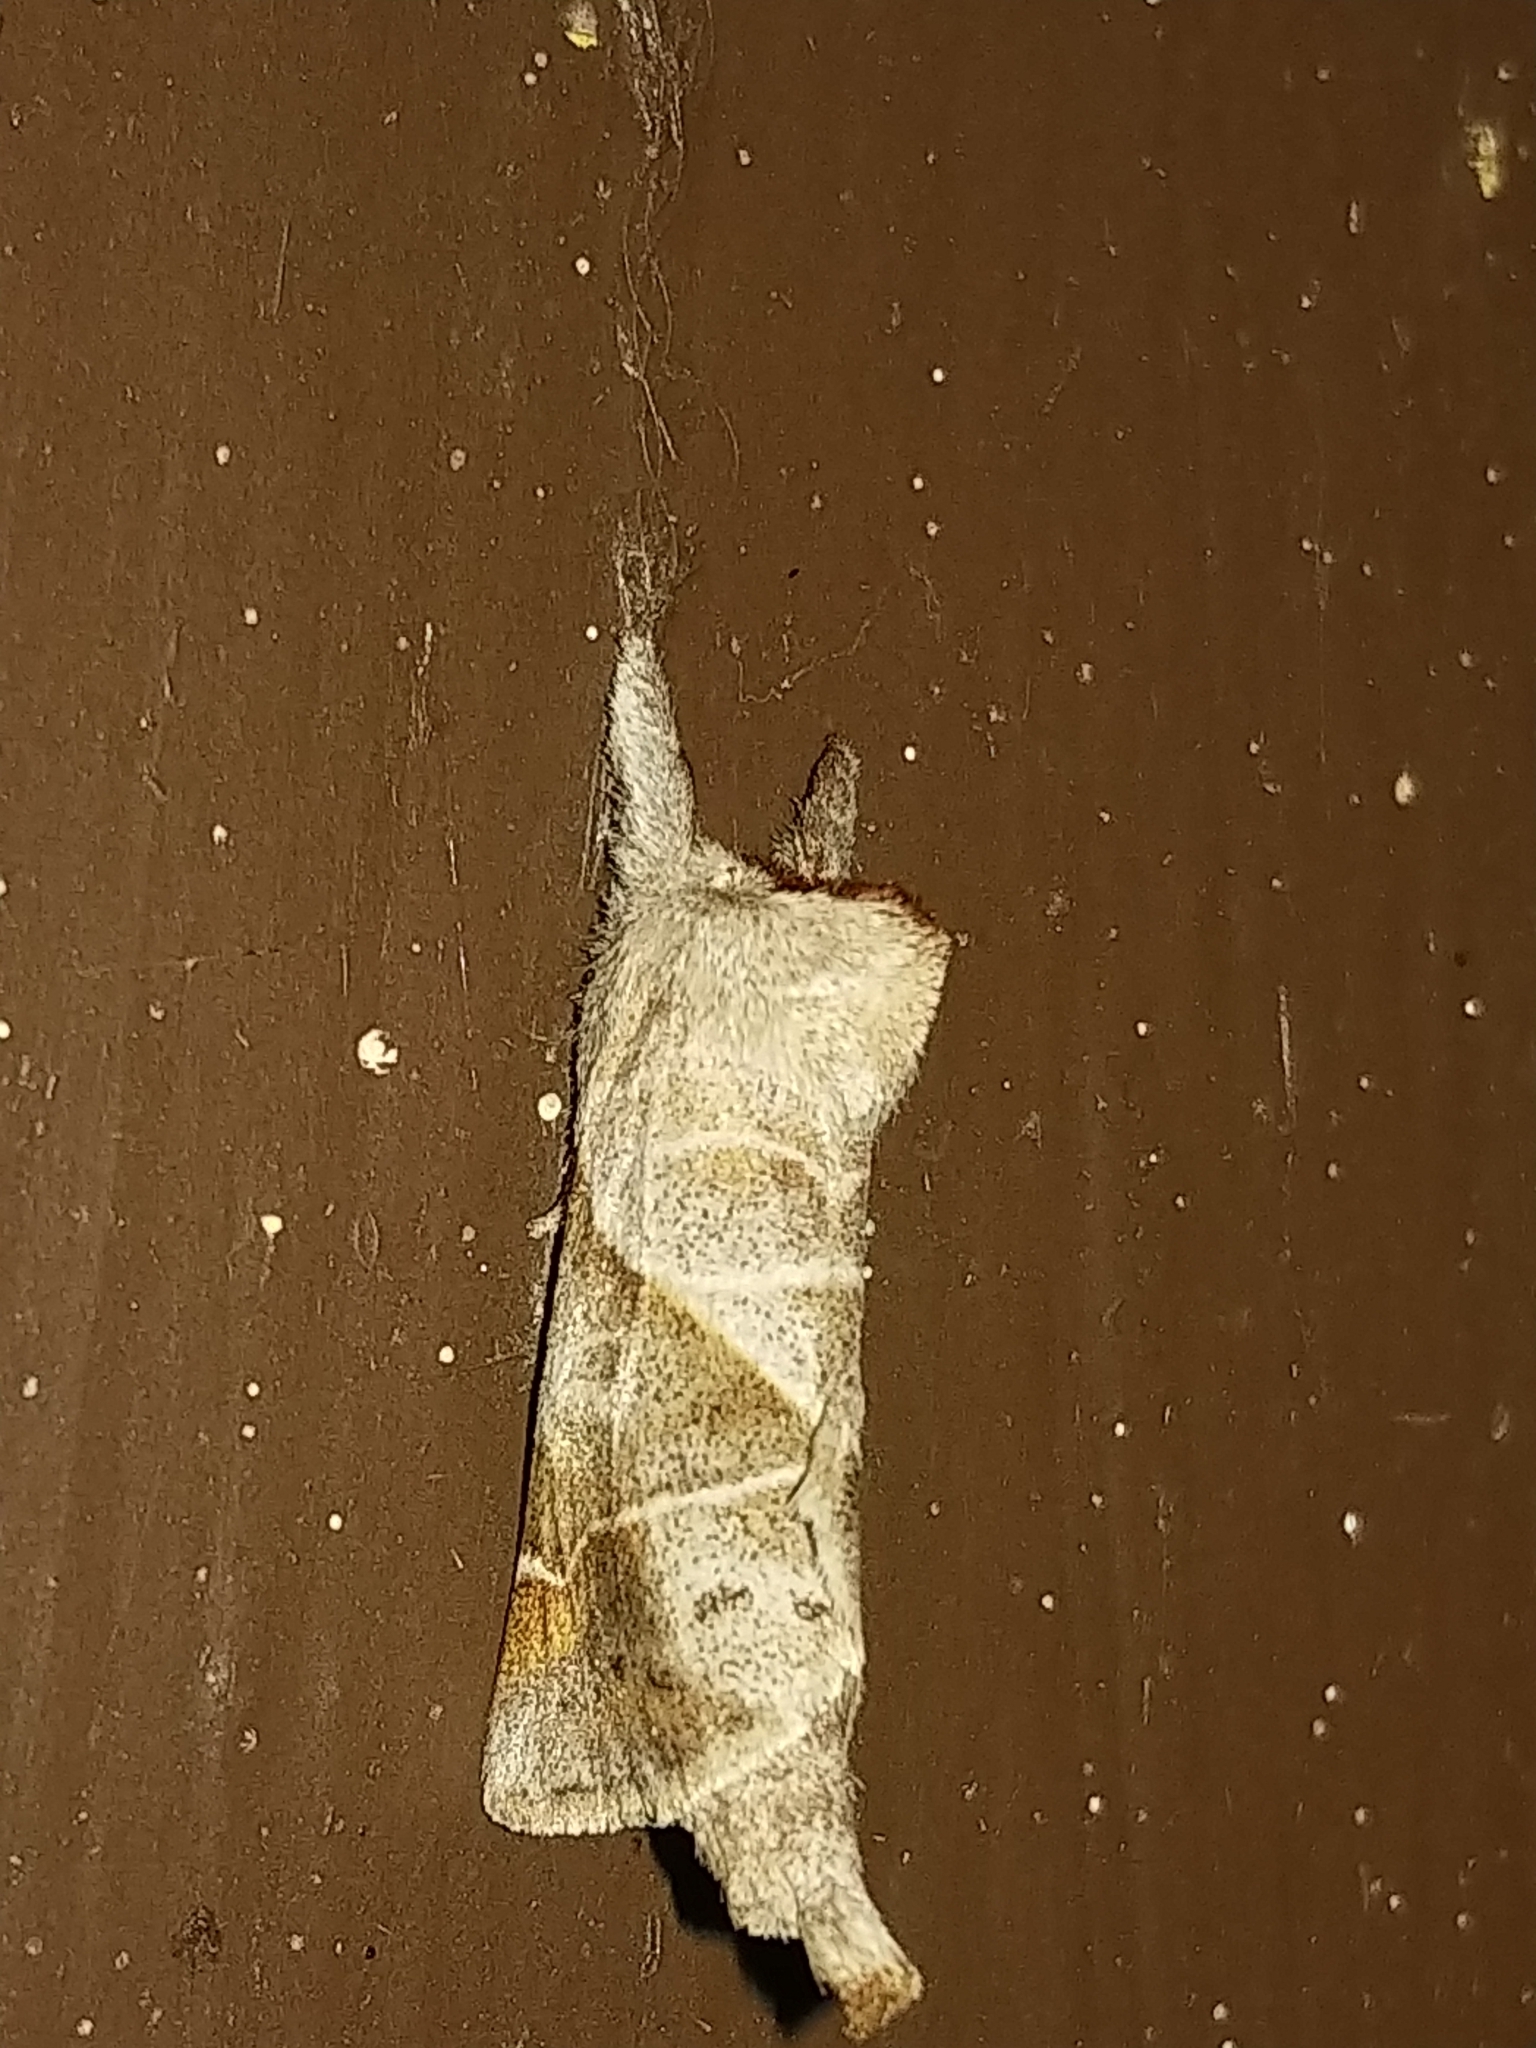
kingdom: Animalia
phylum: Arthropoda
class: Insecta
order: Lepidoptera
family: Notodontidae
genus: Clostera
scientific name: Clostera inclusa
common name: Angle-lined prominent
